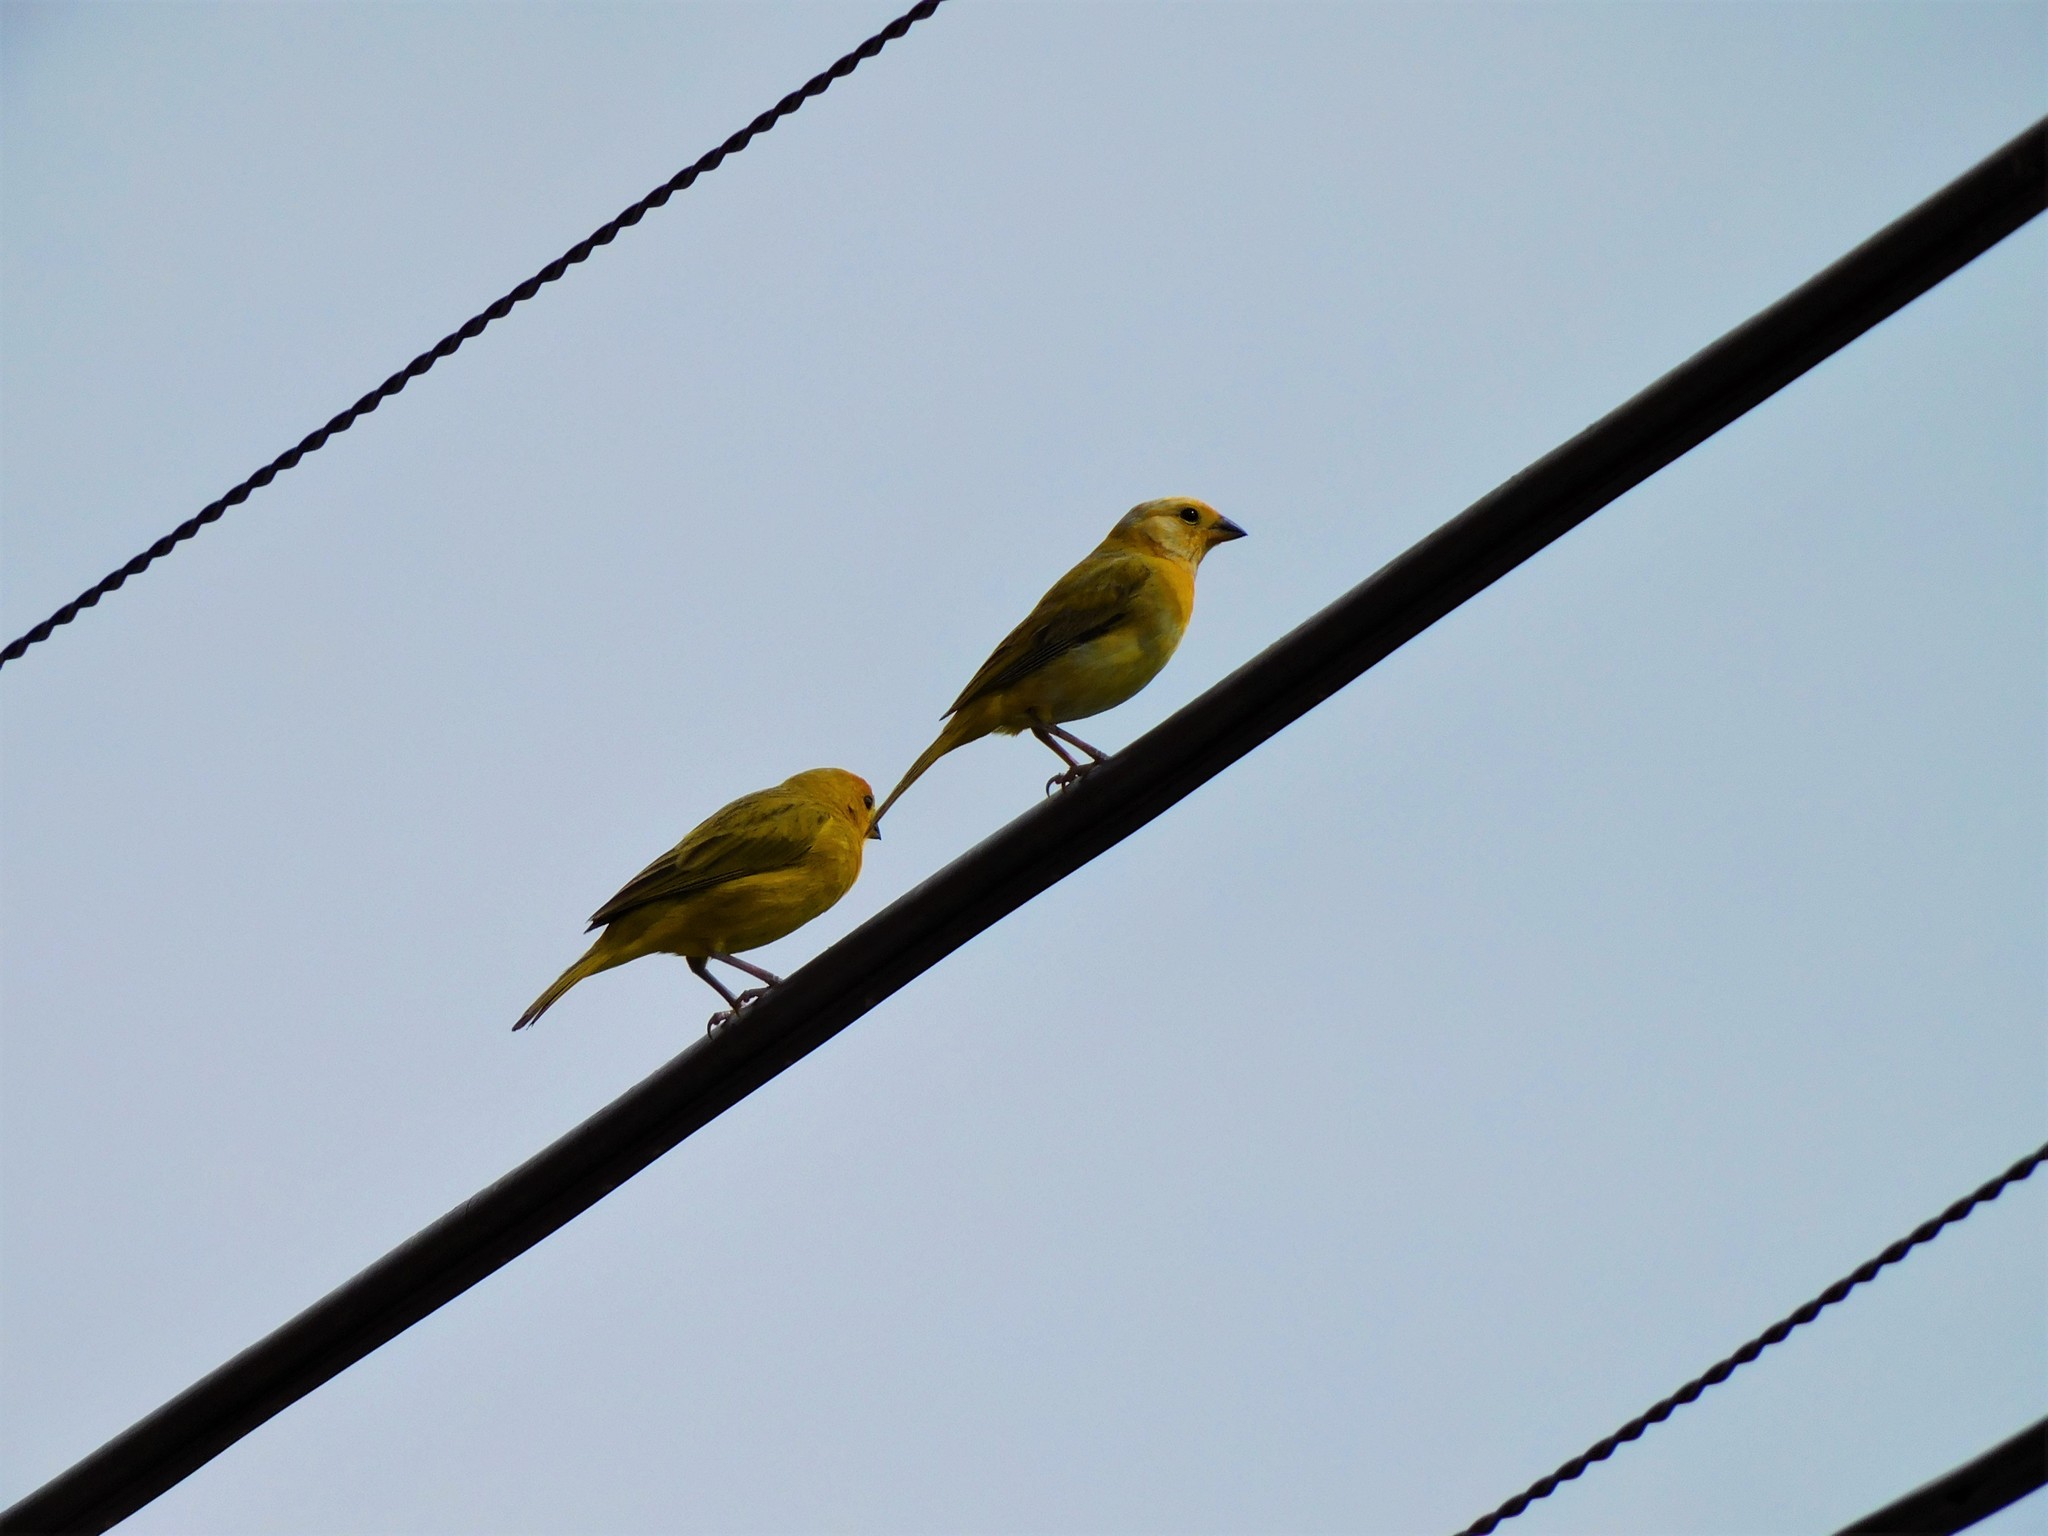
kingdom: Animalia
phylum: Chordata
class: Aves
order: Passeriformes
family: Thraupidae
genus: Sicalis
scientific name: Sicalis flaveola
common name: Saffron finch
